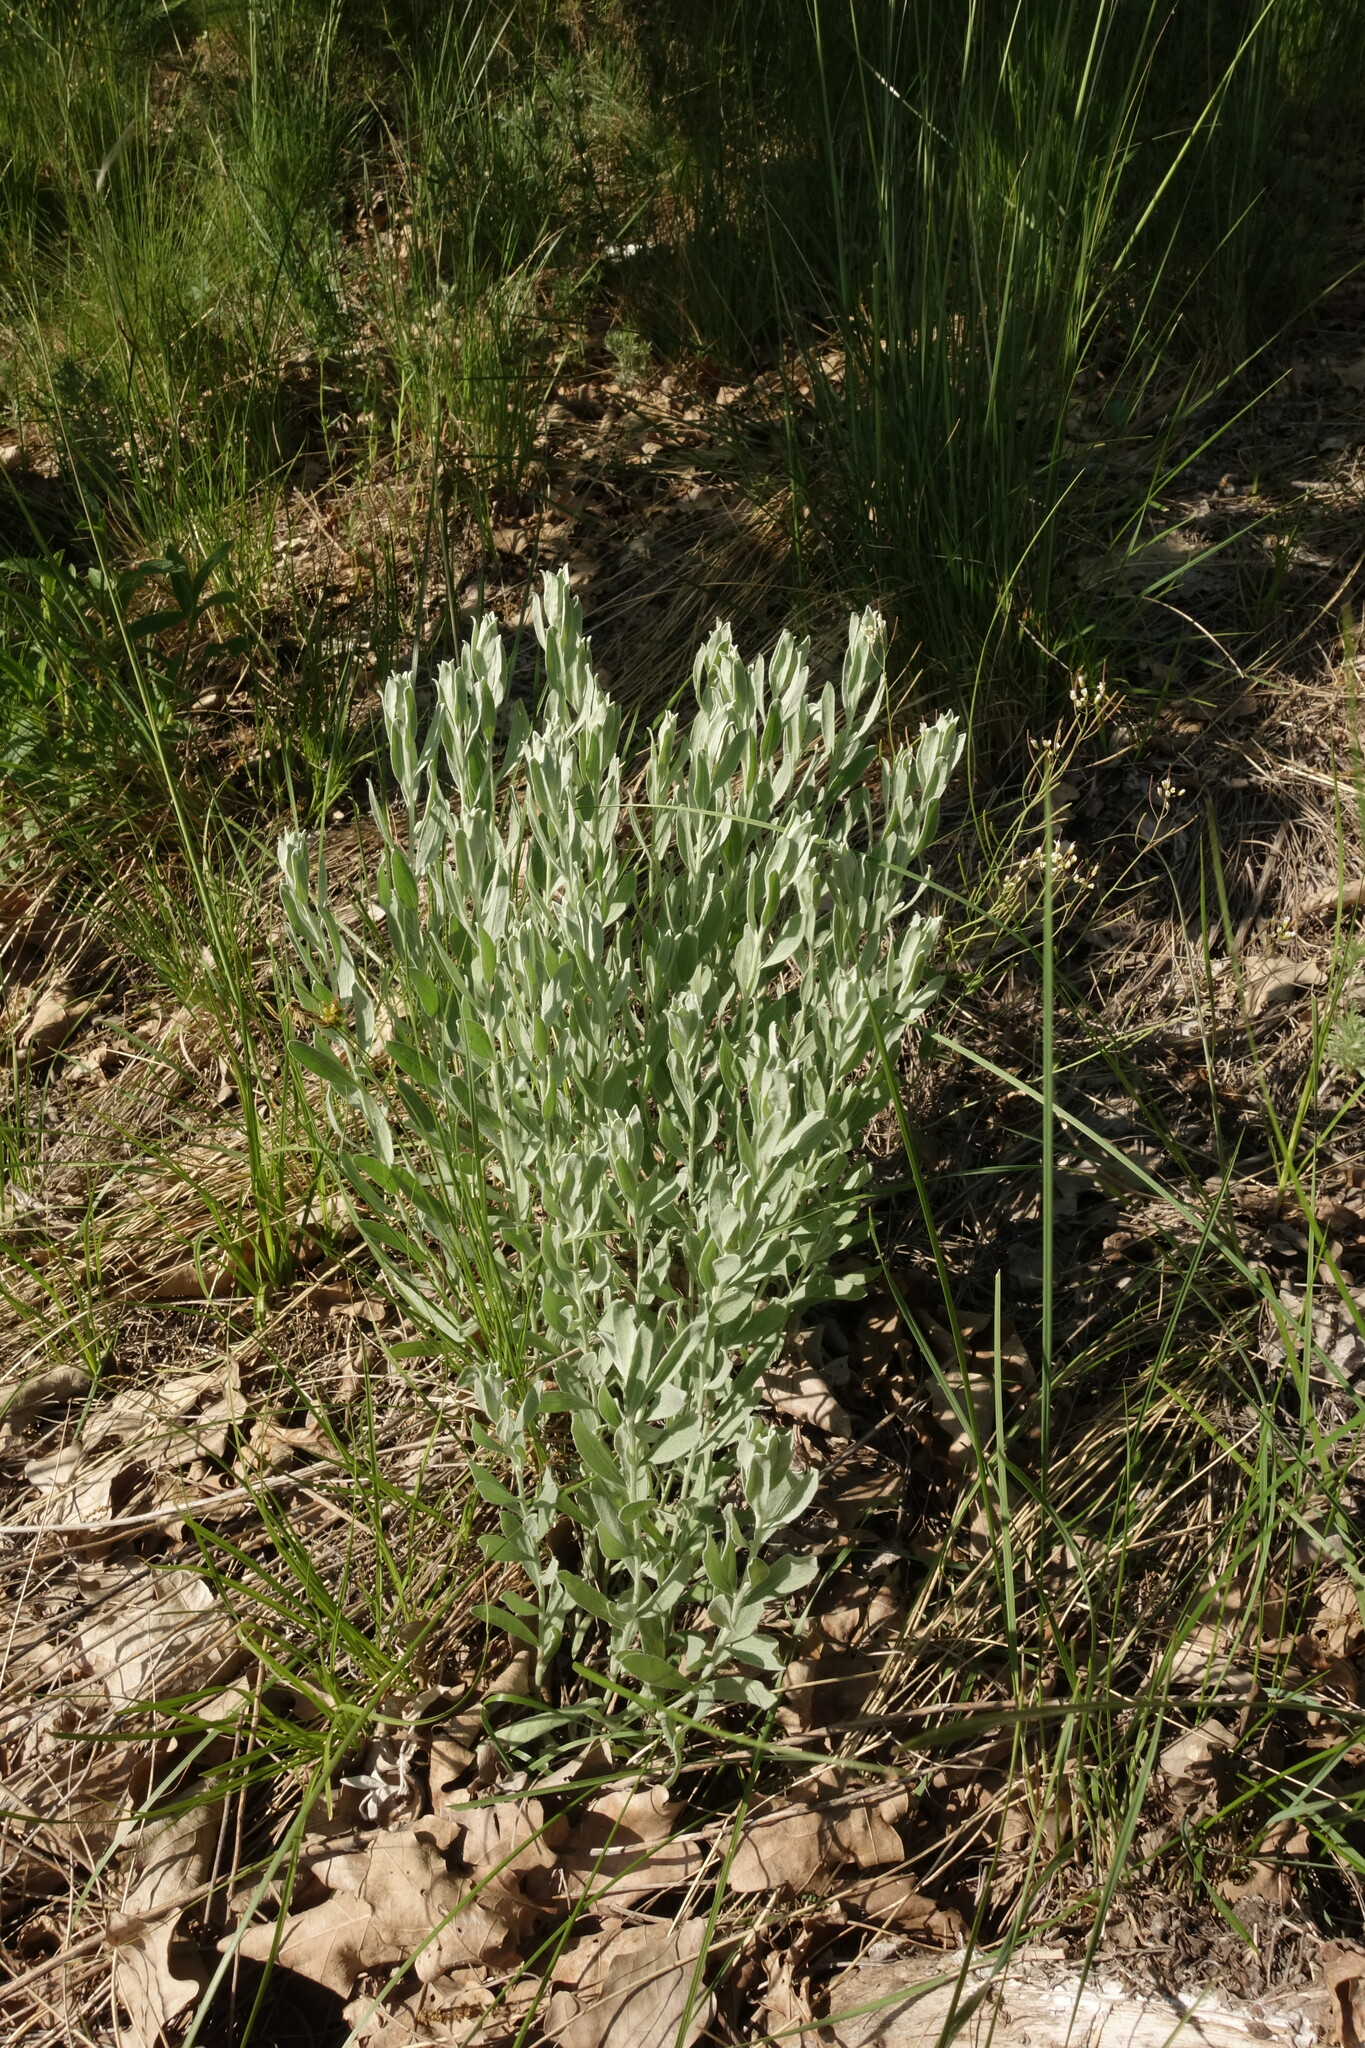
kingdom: Plantae
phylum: Tracheophyta
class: Magnoliopsida
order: Asterales
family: Asteraceae
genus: Galatella
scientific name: Galatella villosa
